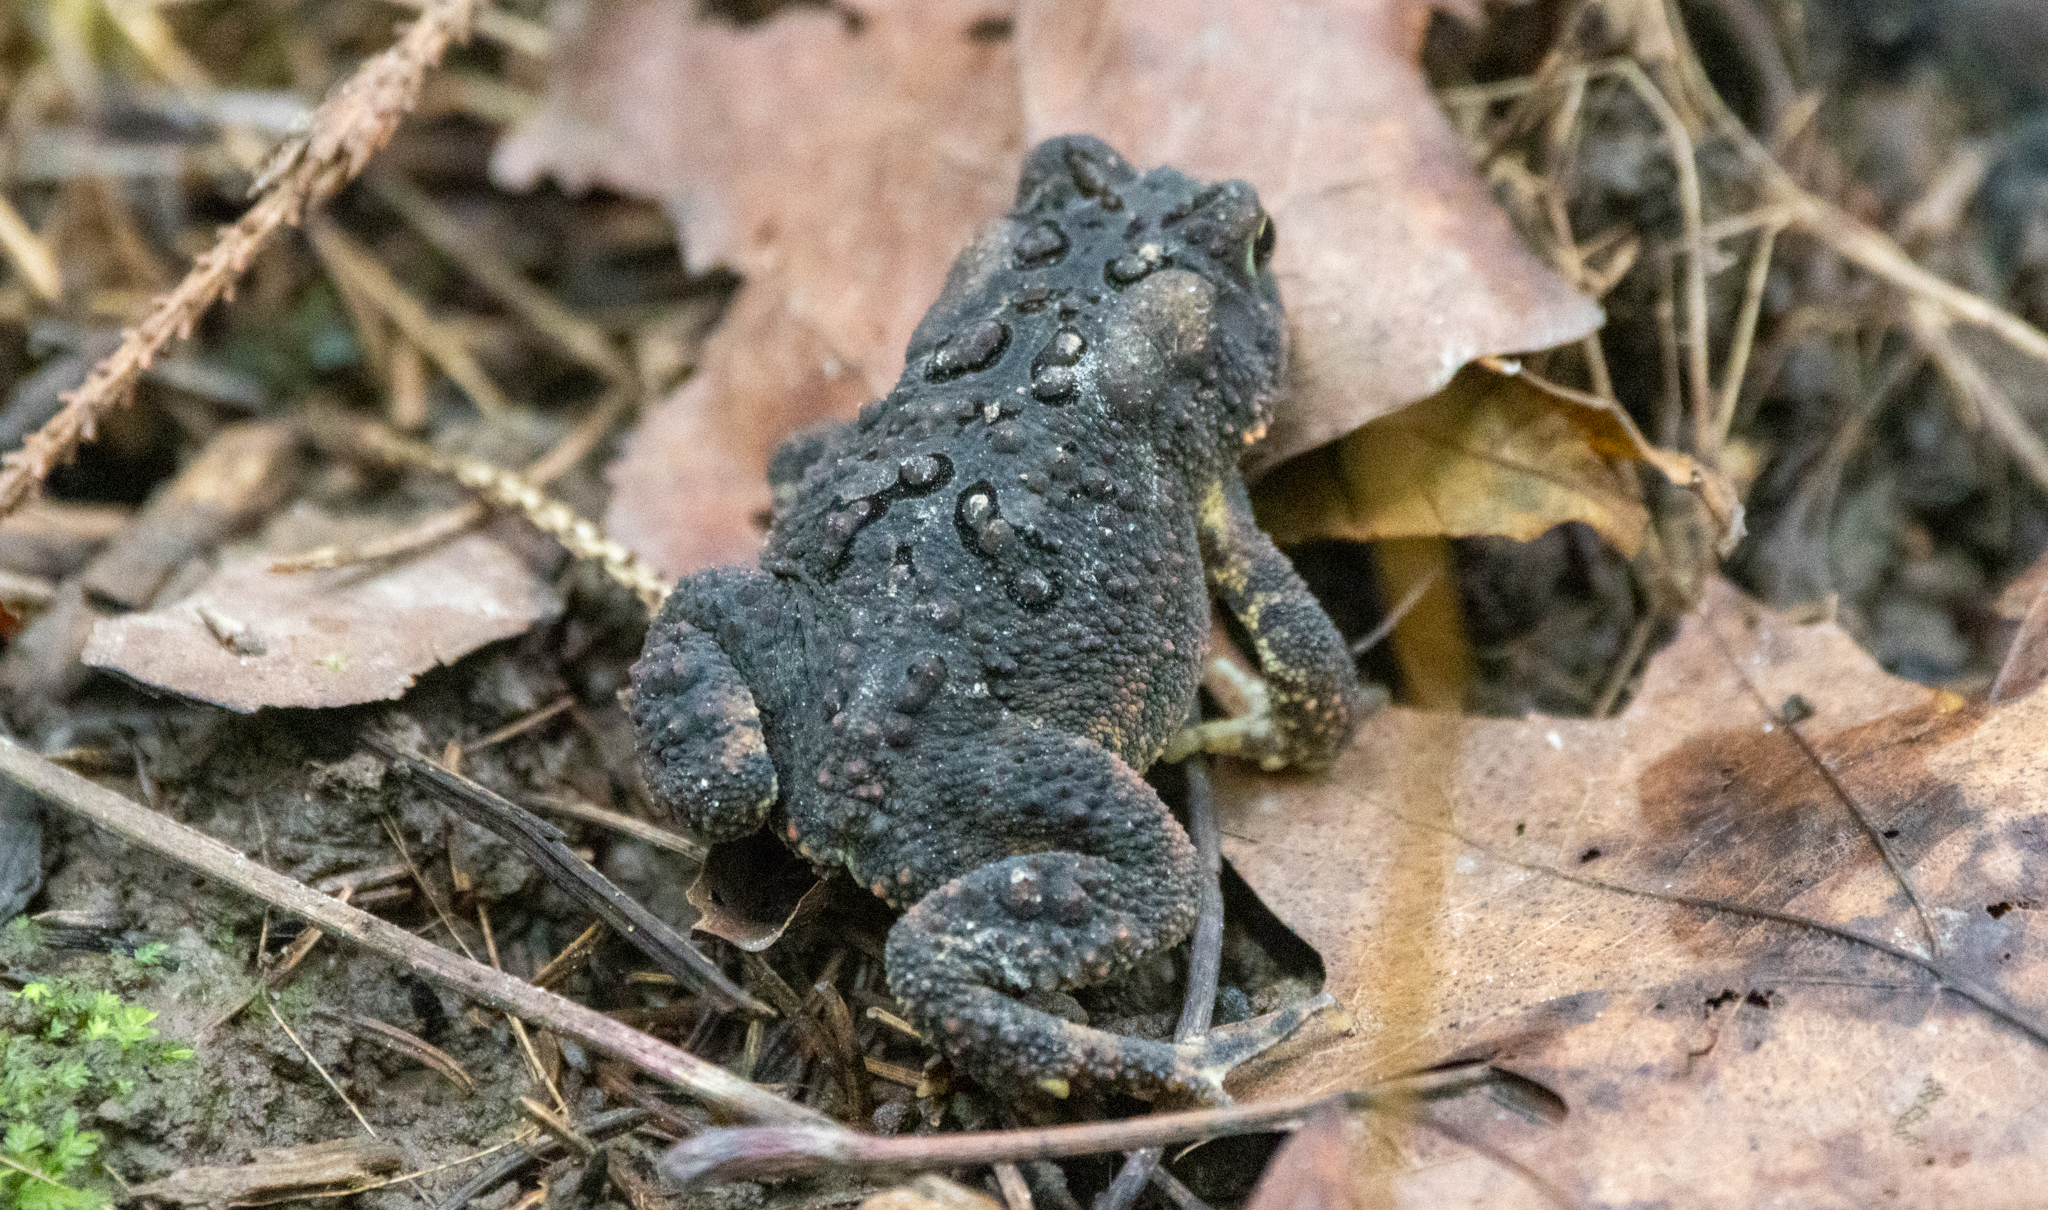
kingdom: Animalia
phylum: Chordata
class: Amphibia
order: Anura
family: Bufonidae
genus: Anaxyrus
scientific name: Anaxyrus americanus
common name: American toad
